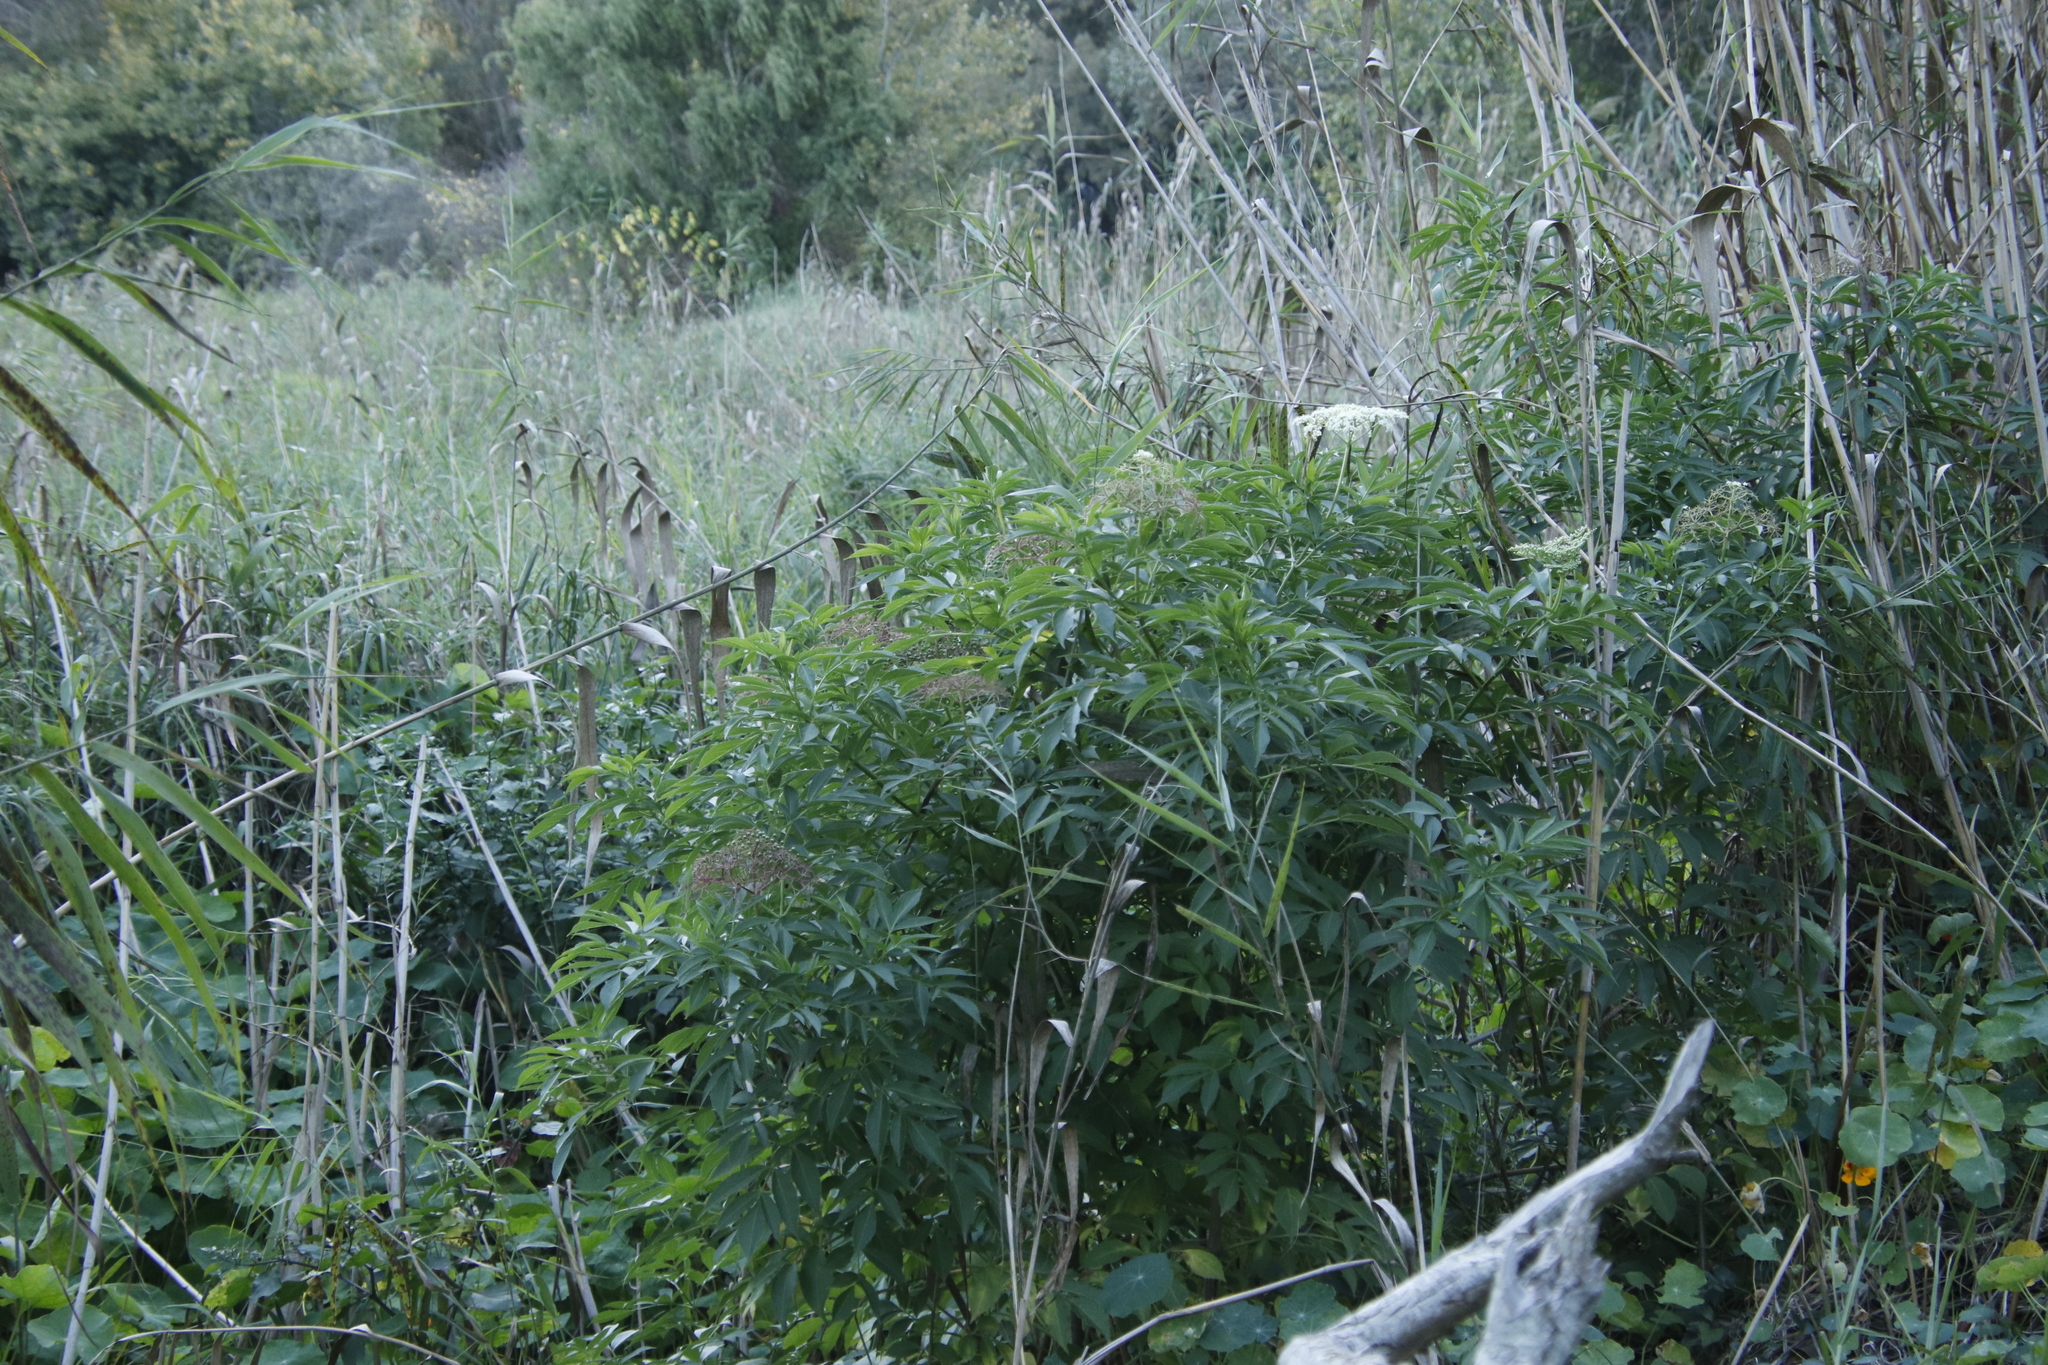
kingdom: Plantae
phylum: Tracheophyta
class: Magnoliopsida
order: Dipsacales
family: Viburnaceae
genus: Sambucus
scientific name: Sambucus nigra
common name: Elder
